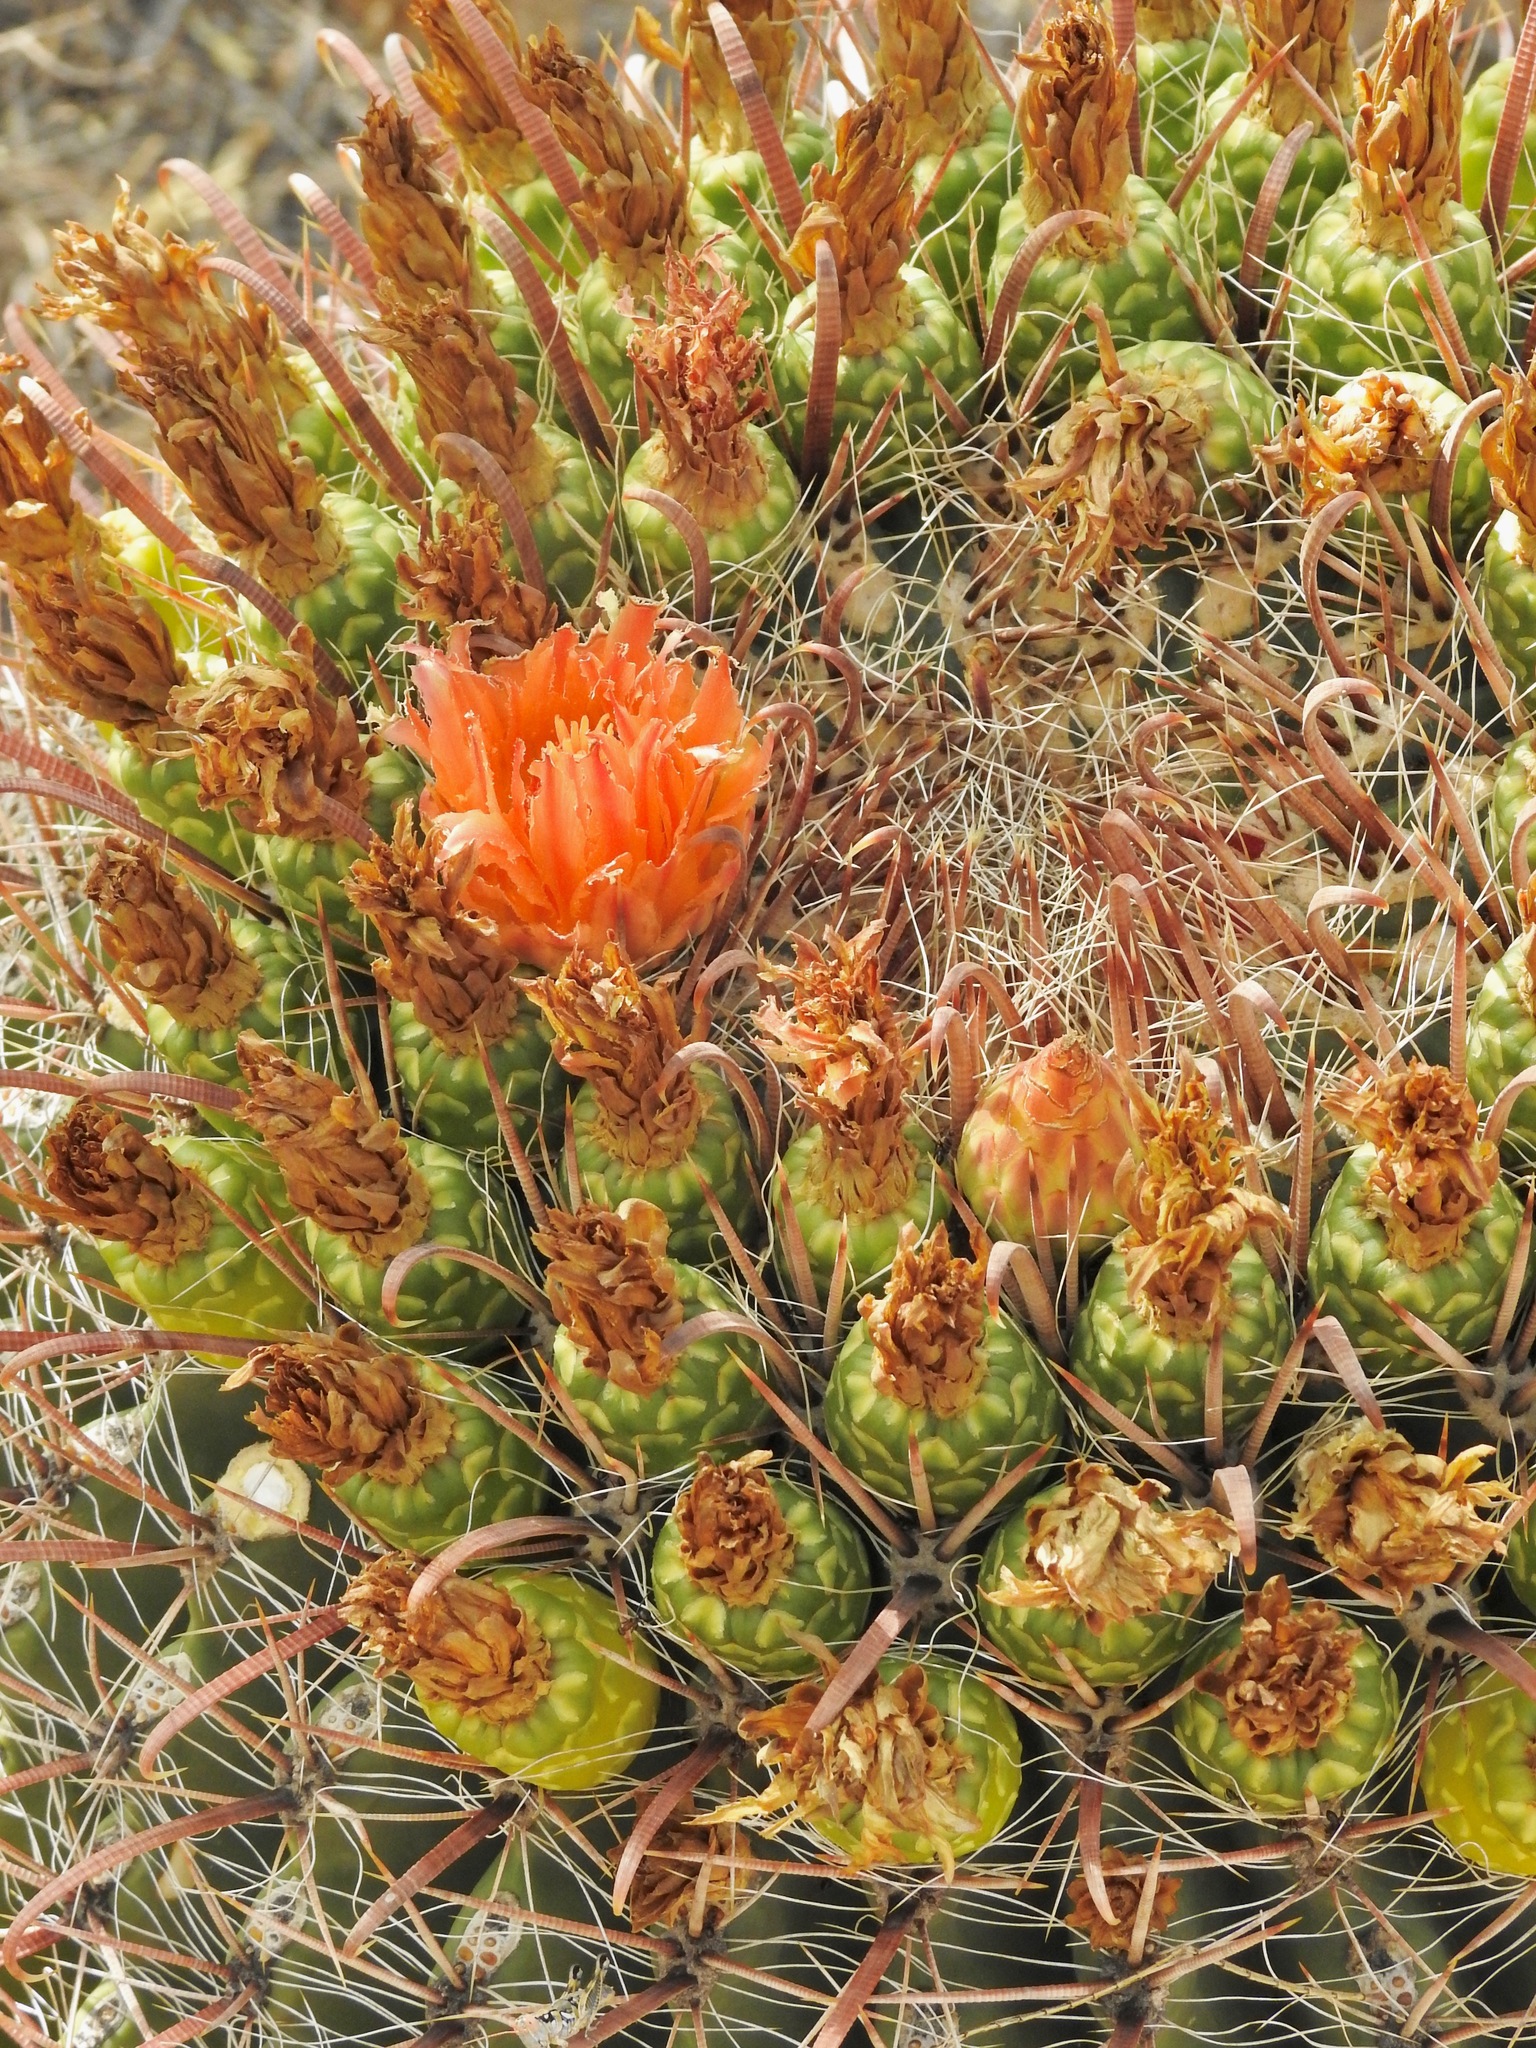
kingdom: Plantae
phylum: Tracheophyta
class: Magnoliopsida
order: Caryophyllales
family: Cactaceae
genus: Ferocactus
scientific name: Ferocactus wislizeni
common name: Candy barrel cactus
